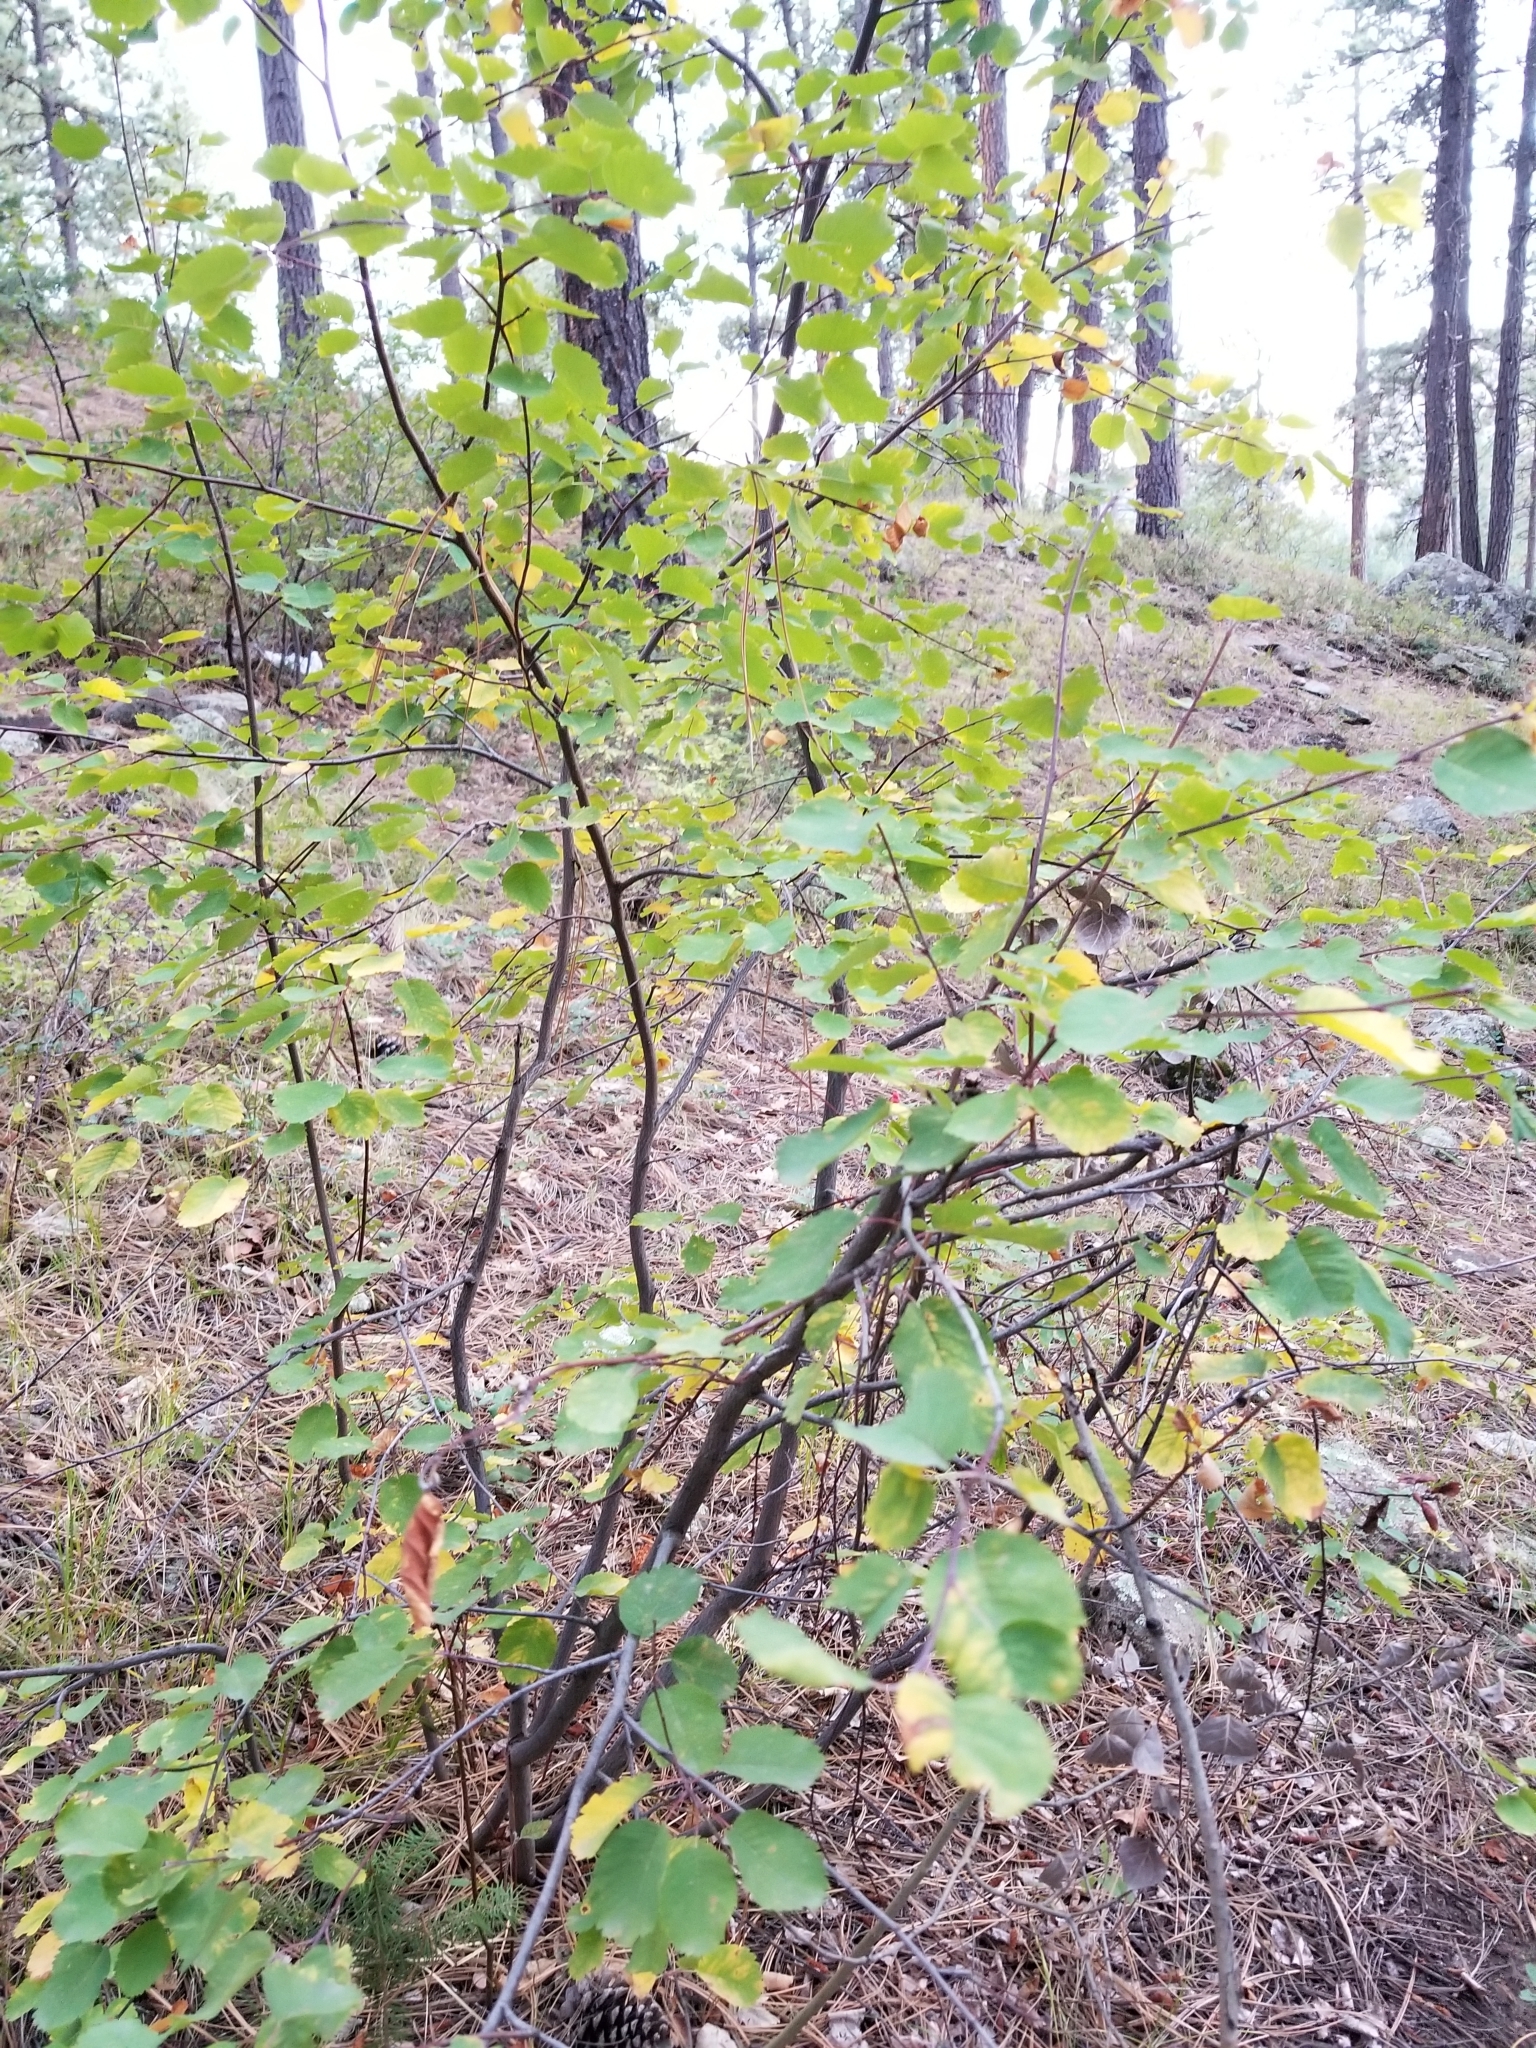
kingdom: Plantae
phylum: Tracheophyta
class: Magnoliopsida
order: Rosales
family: Rosaceae
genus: Amelanchier
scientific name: Amelanchier alnifolia
